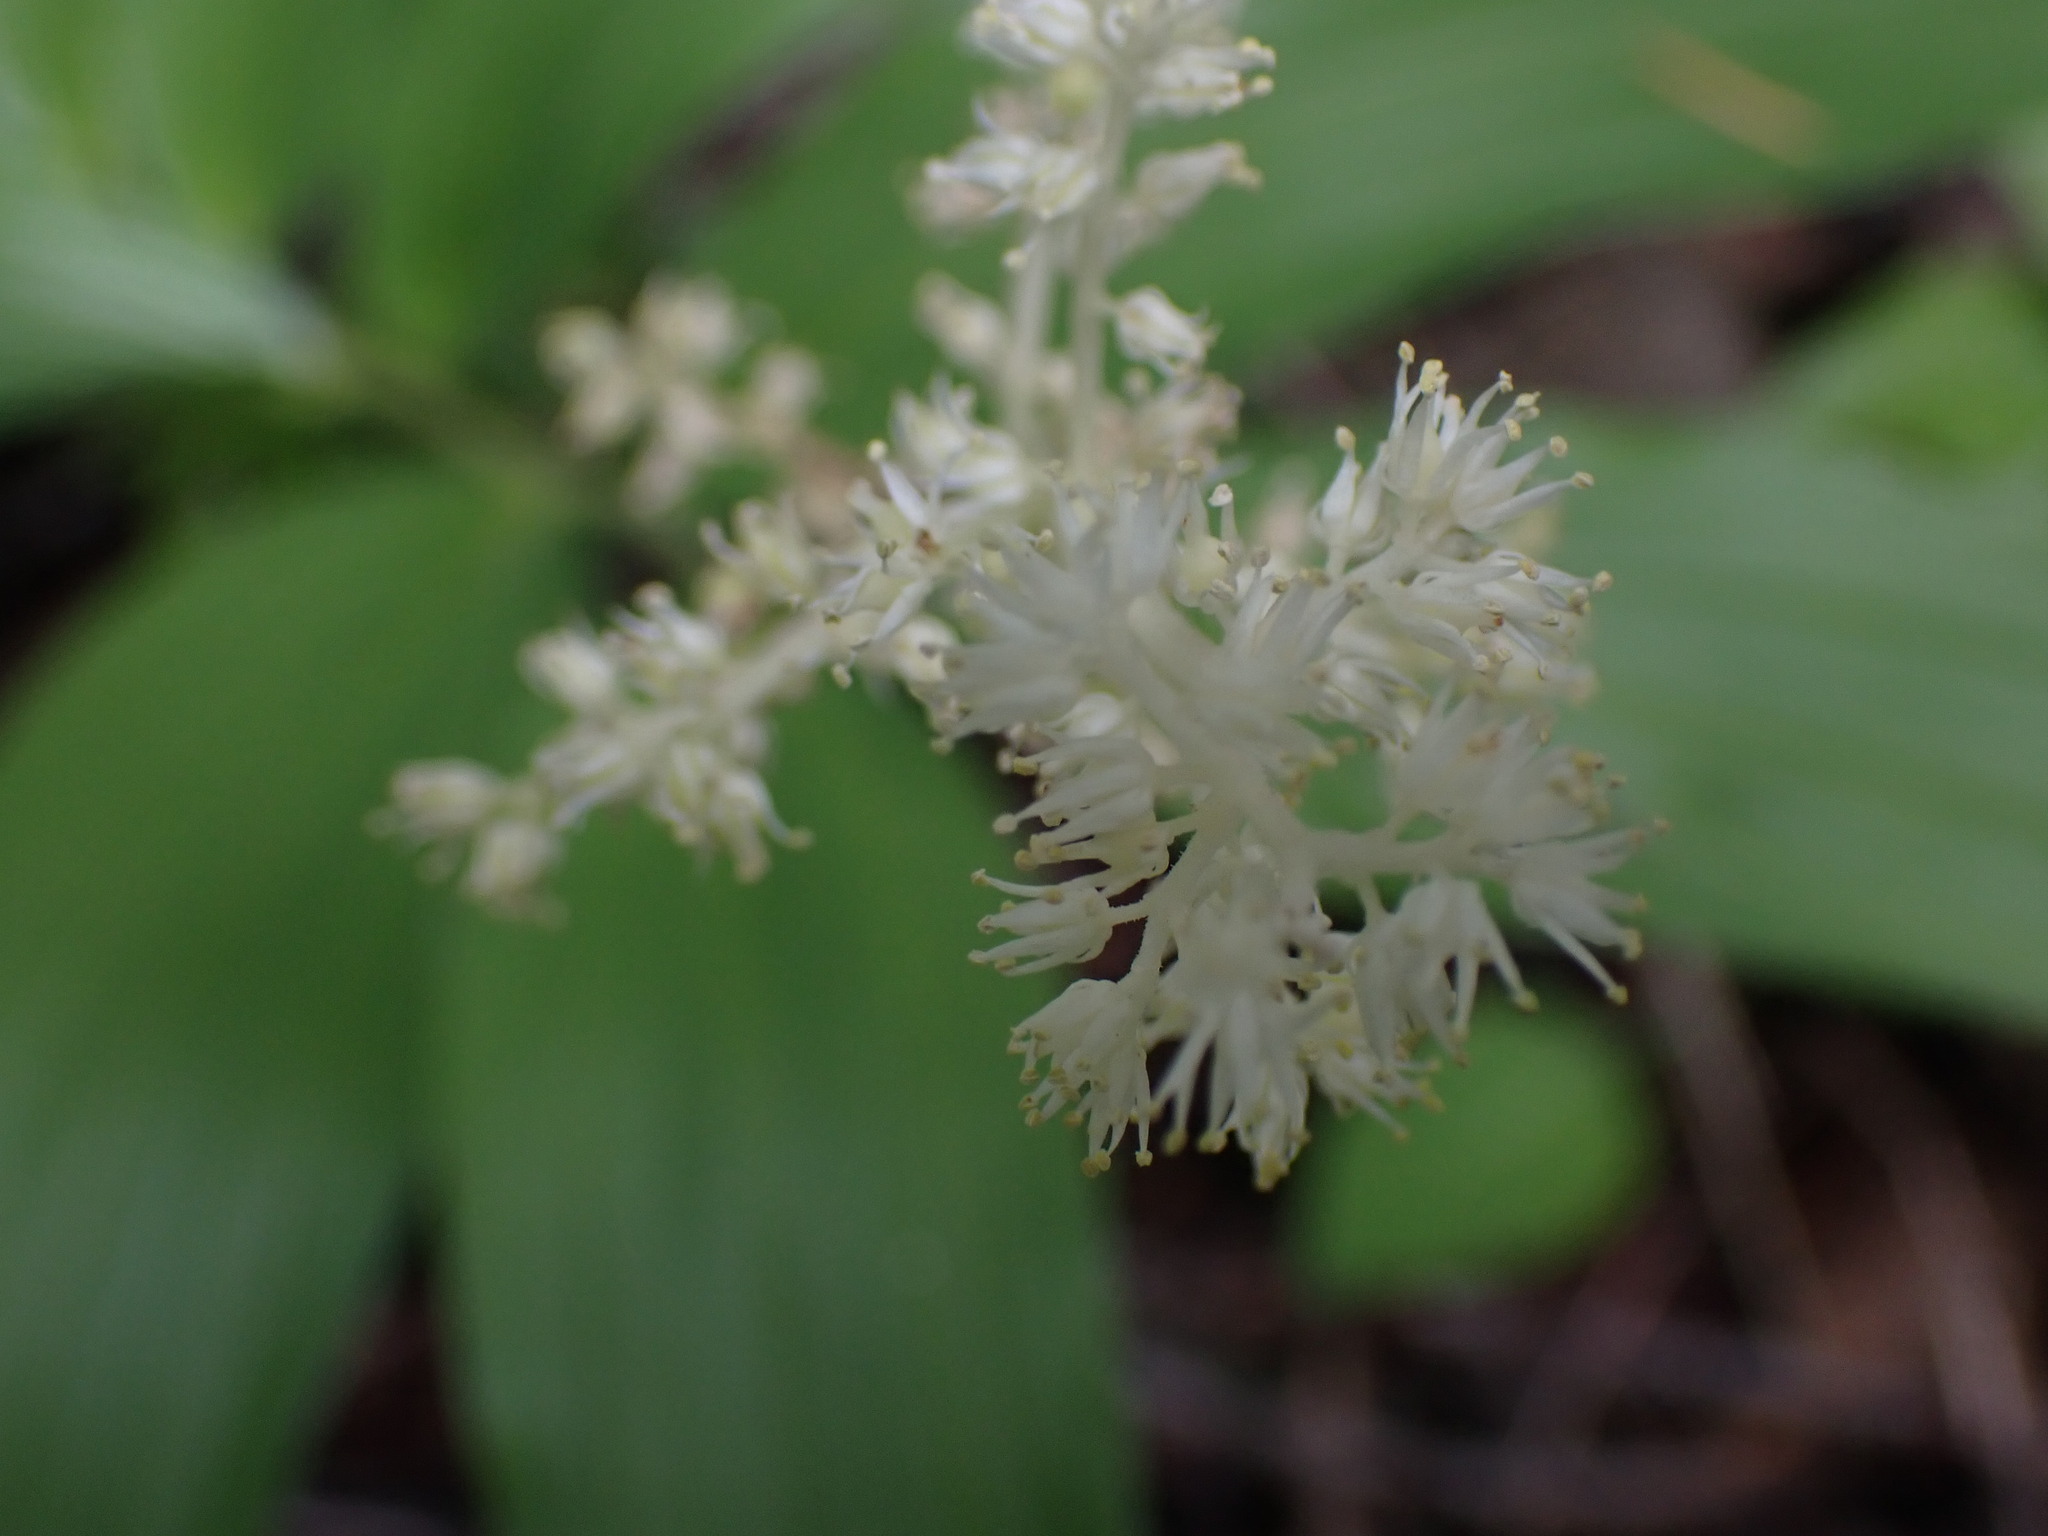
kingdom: Plantae
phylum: Tracheophyta
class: Liliopsida
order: Asparagales
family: Asparagaceae
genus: Maianthemum
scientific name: Maianthemum racemosum
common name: False spikenard
